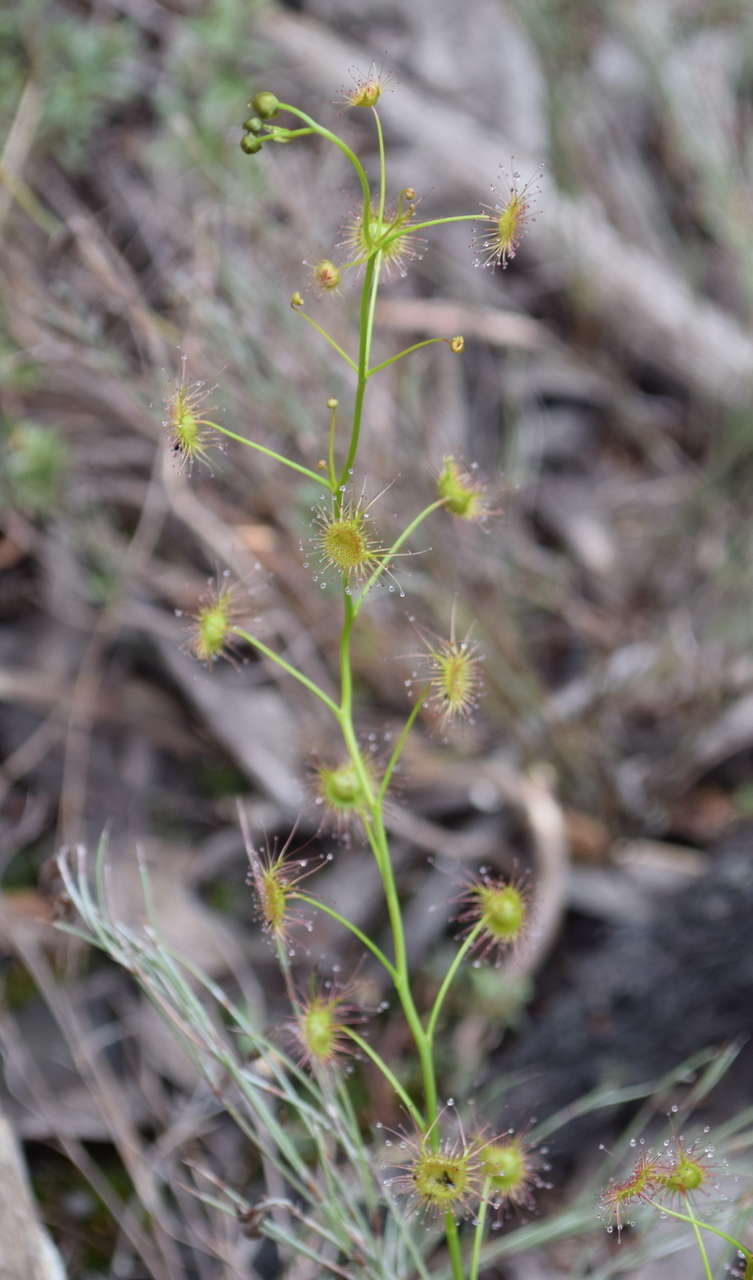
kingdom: Plantae
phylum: Tracheophyta
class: Magnoliopsida
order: Caryophyllales
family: Droseraceae
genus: Drosera
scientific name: Drosera peltata
